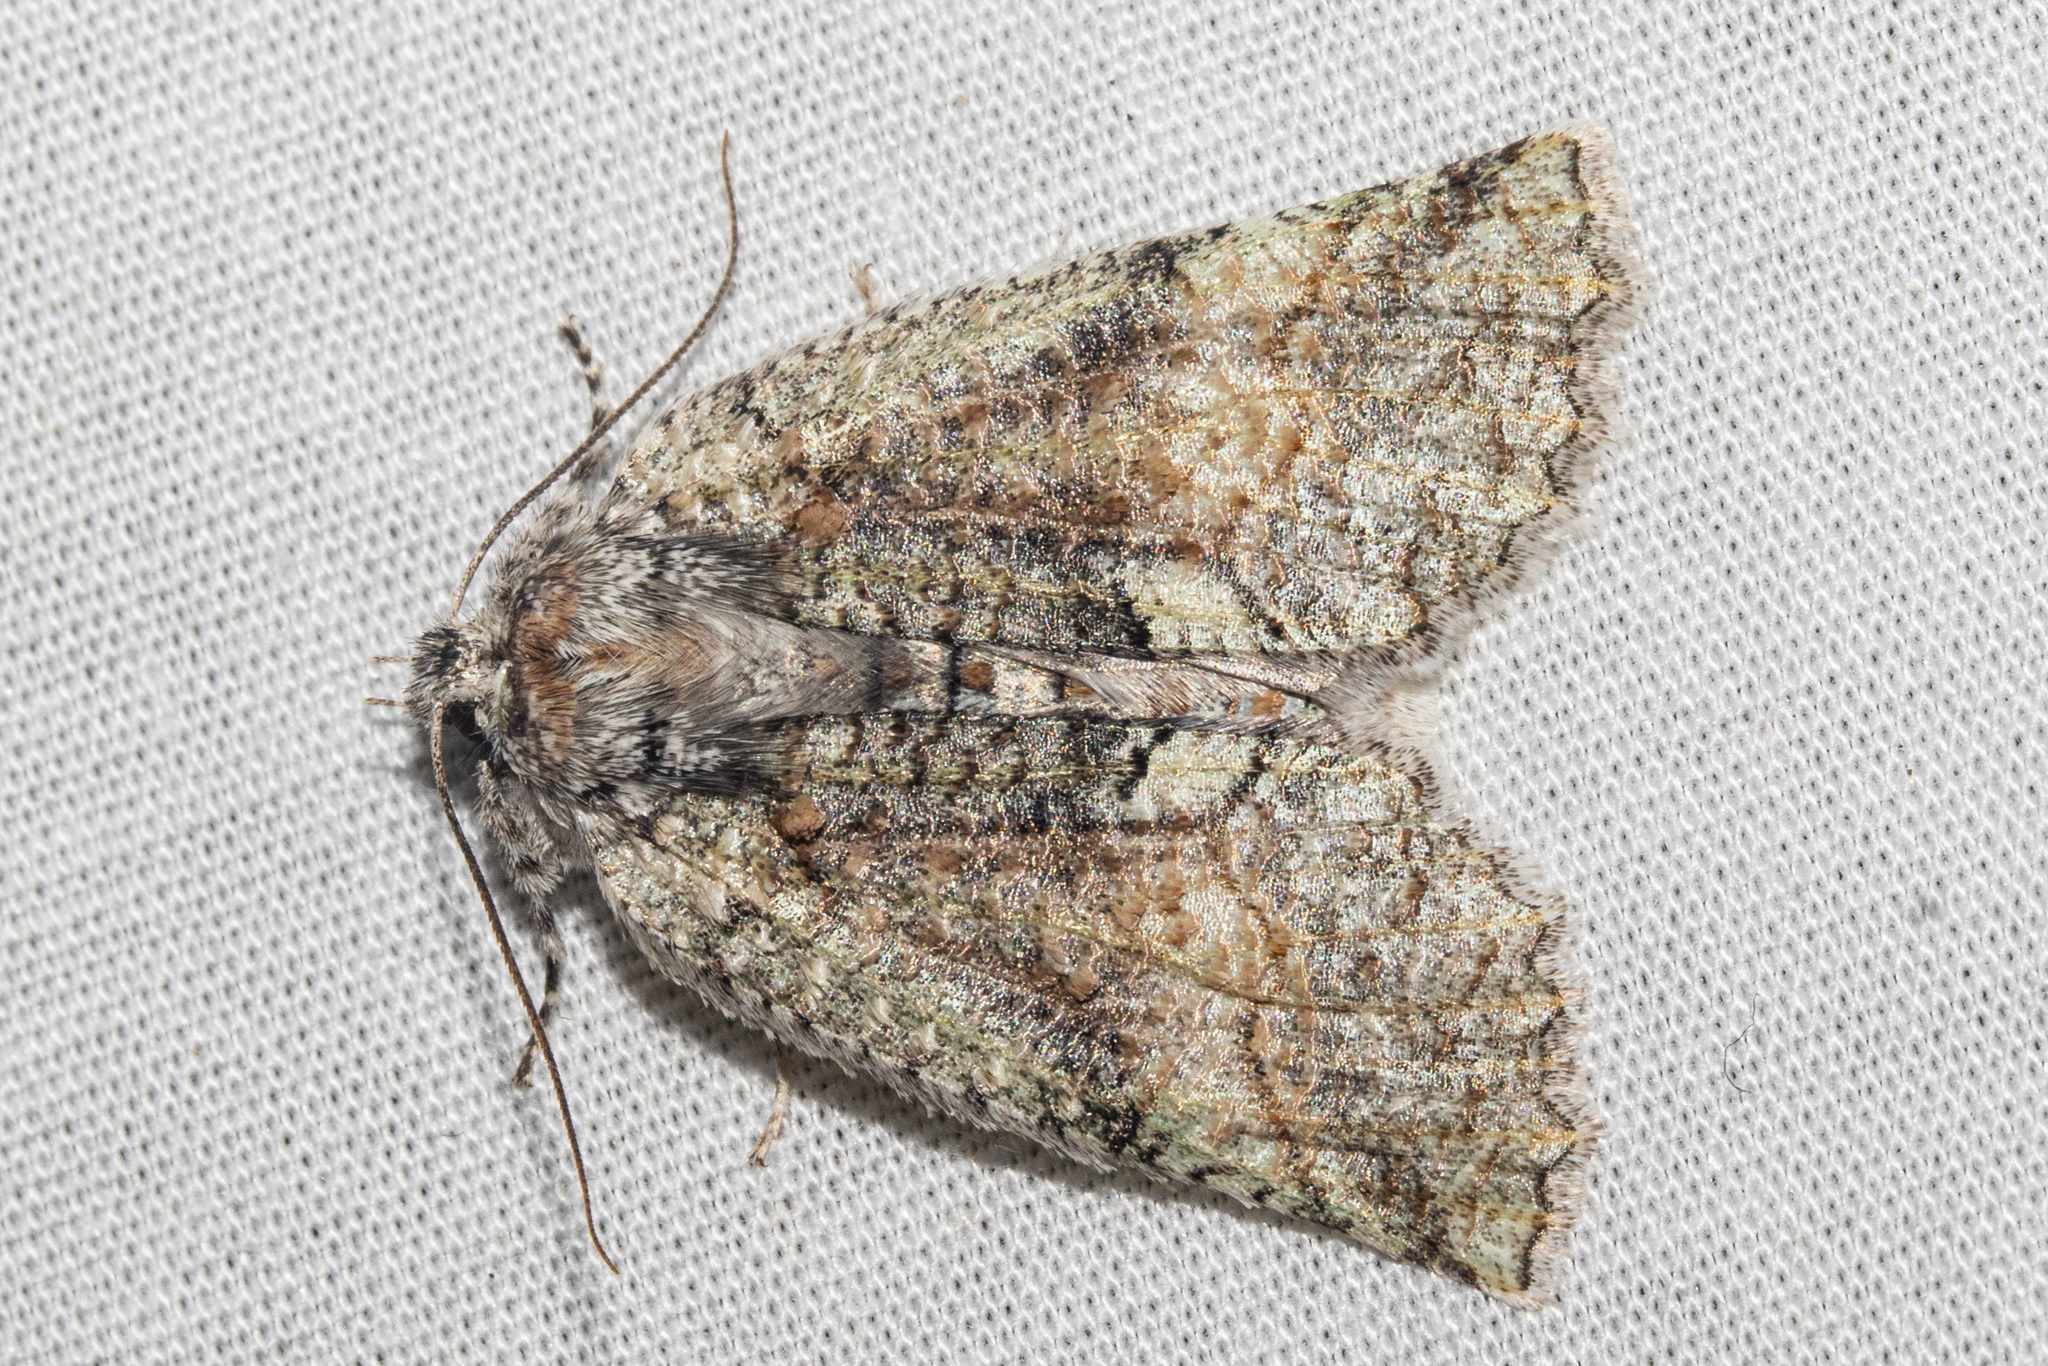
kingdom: Animalia
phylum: Arthropoda
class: Insecta
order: Lepidoptera
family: Geometridae
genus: Declana
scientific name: Declana floccosa
